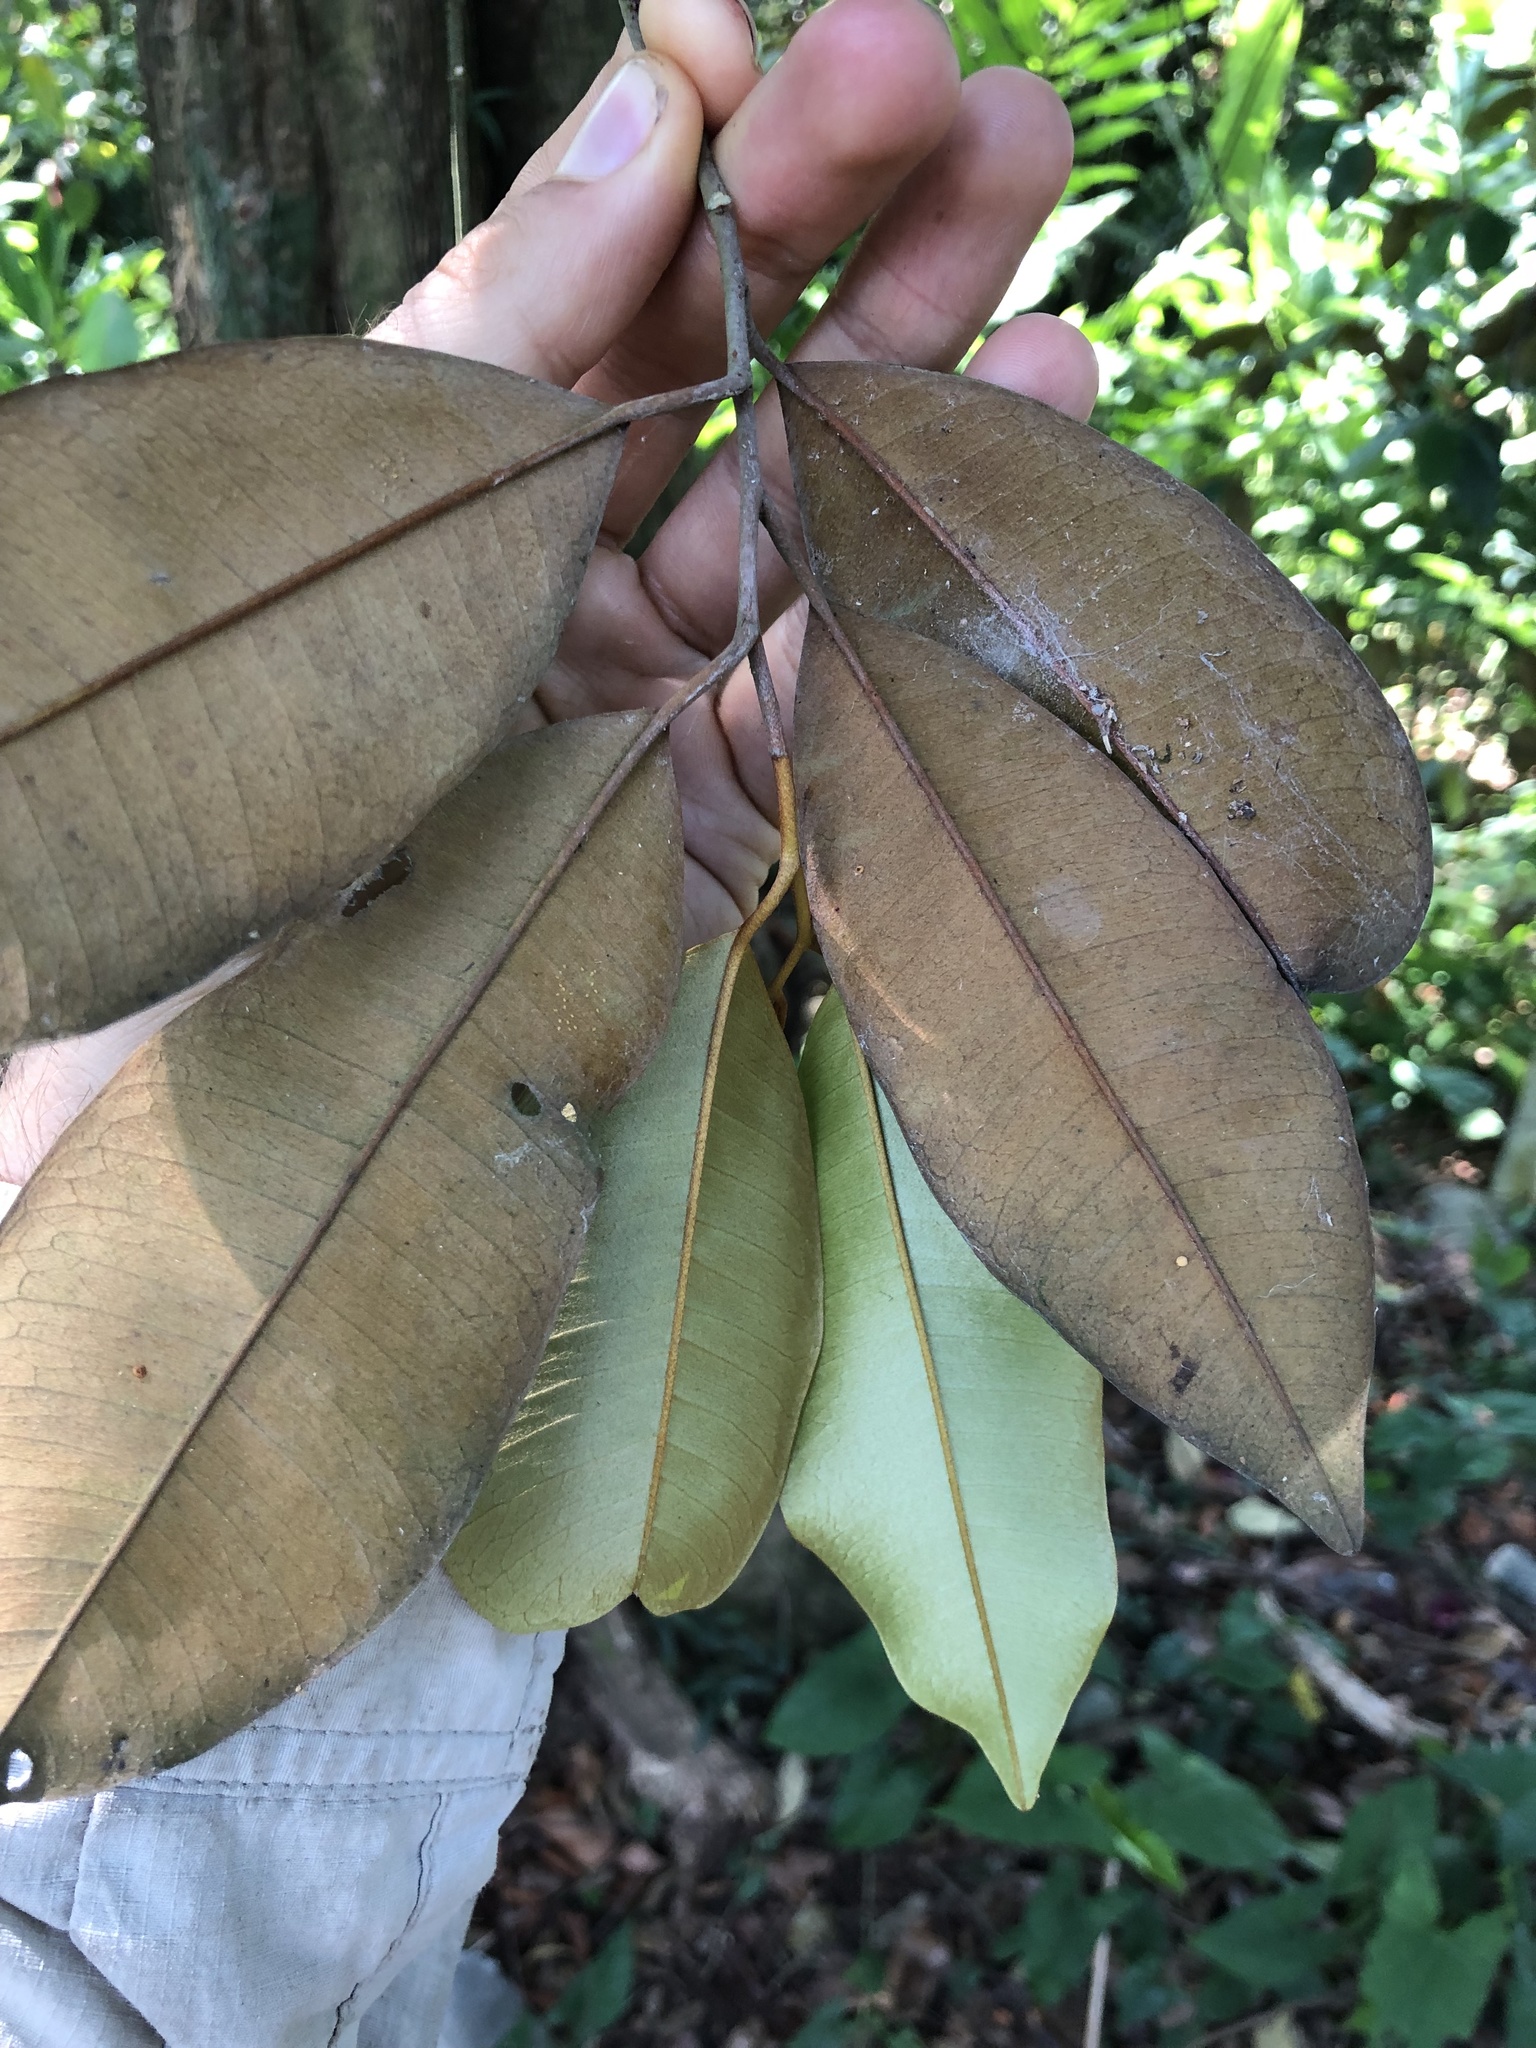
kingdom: Plantae
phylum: Tracheophyta
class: Magnoliopsida
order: Ericales
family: Sapotaceae
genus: Chrysophyllum
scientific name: Chrysophyllum cainito
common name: Star-apple
